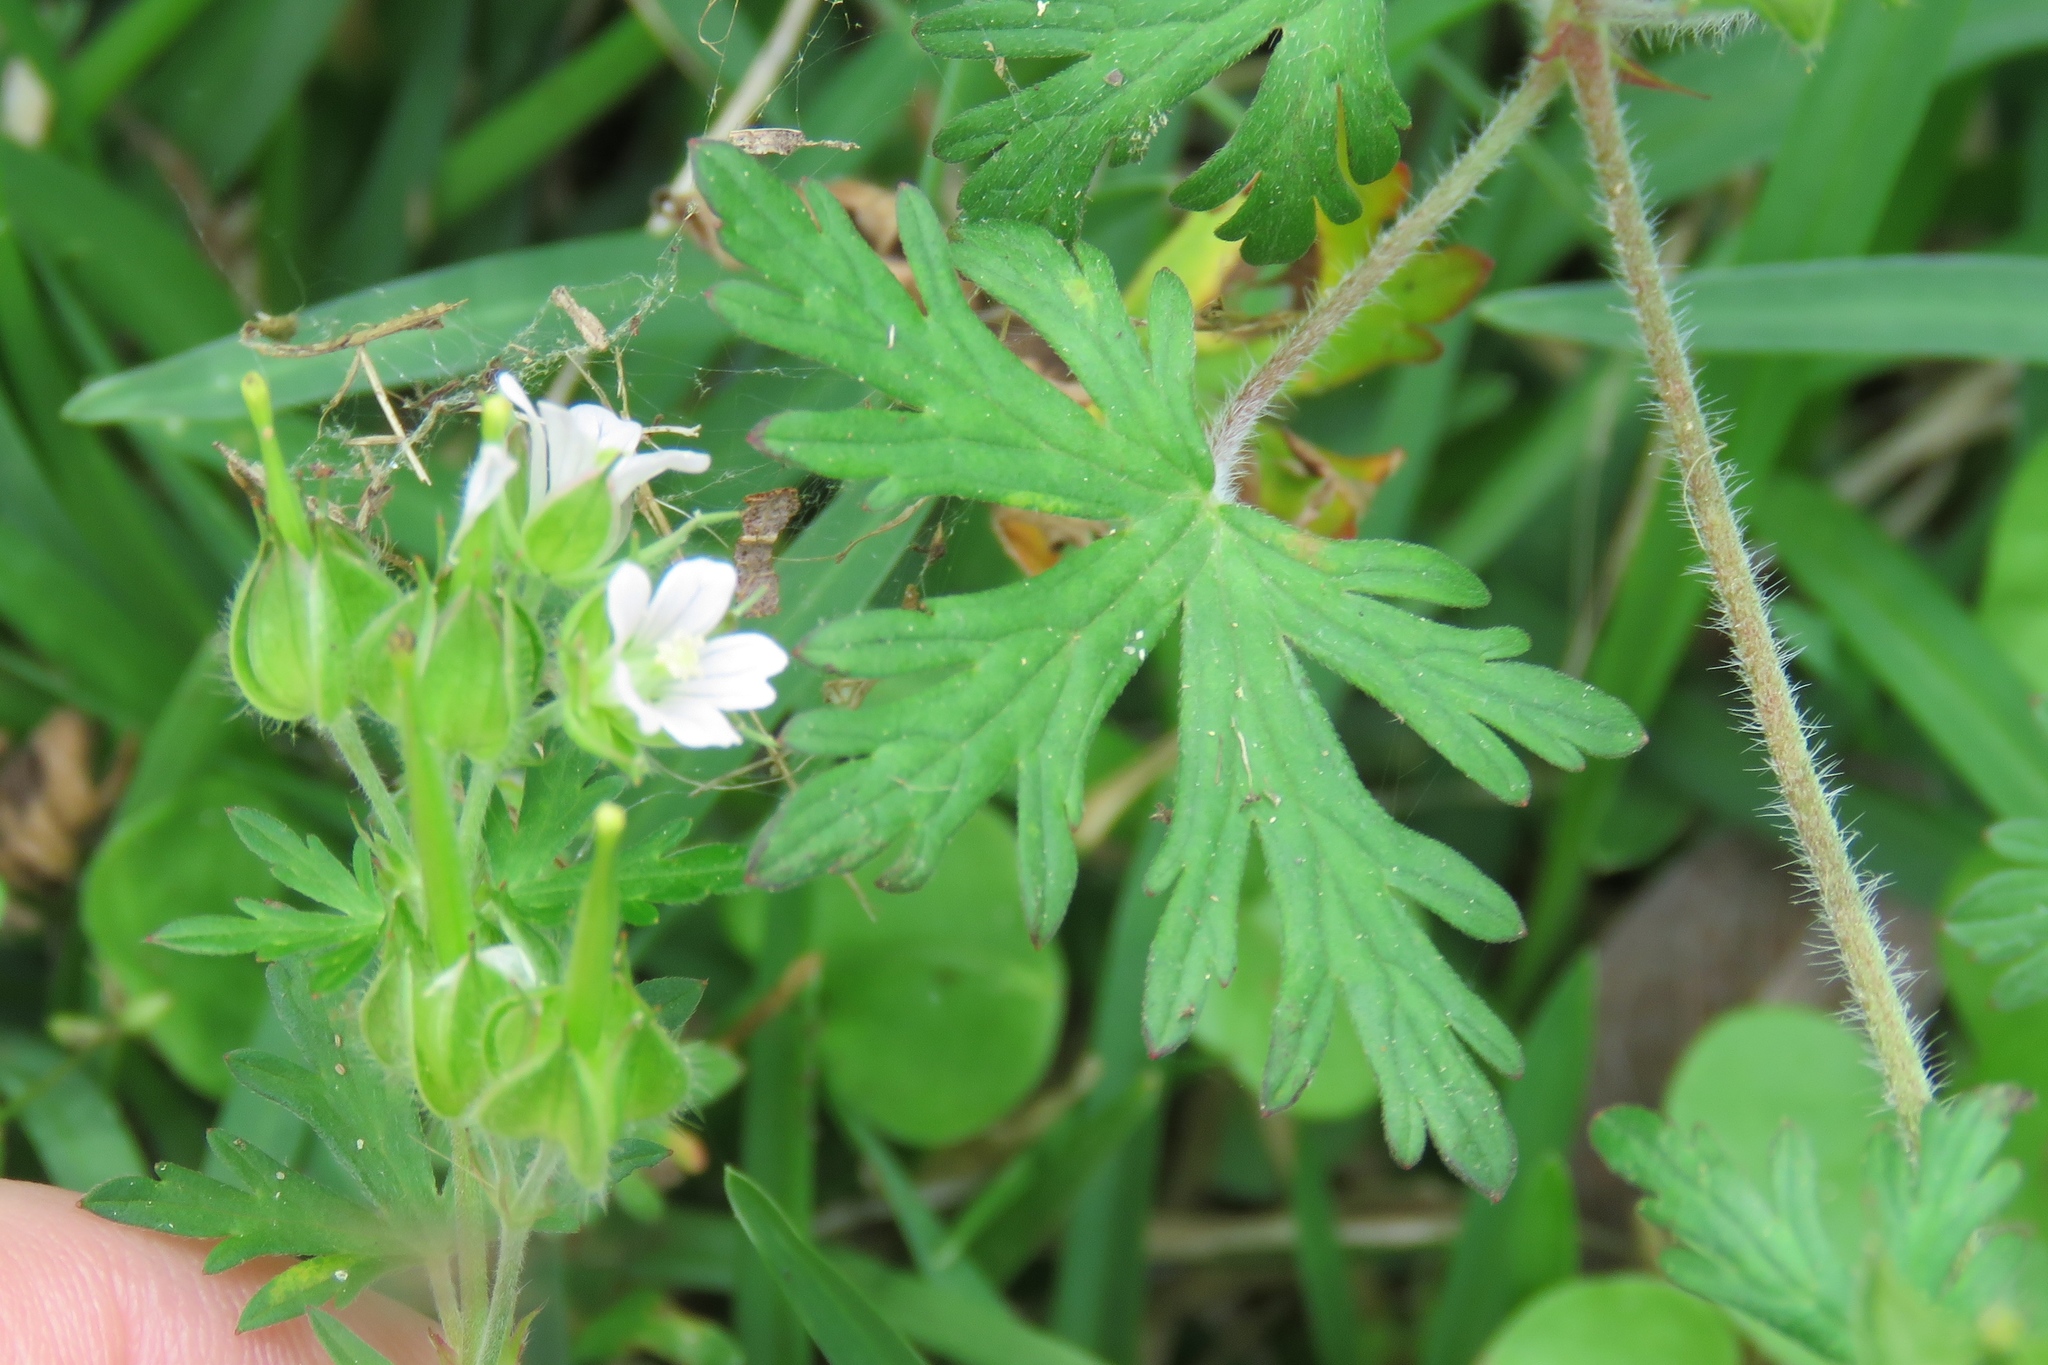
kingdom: Plantae
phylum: Tracheophyta
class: Magnoliopsida
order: Geraniales
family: Geraniaceae
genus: Geranium
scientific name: Geranium carolinianum
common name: Carolina crane's-bill
